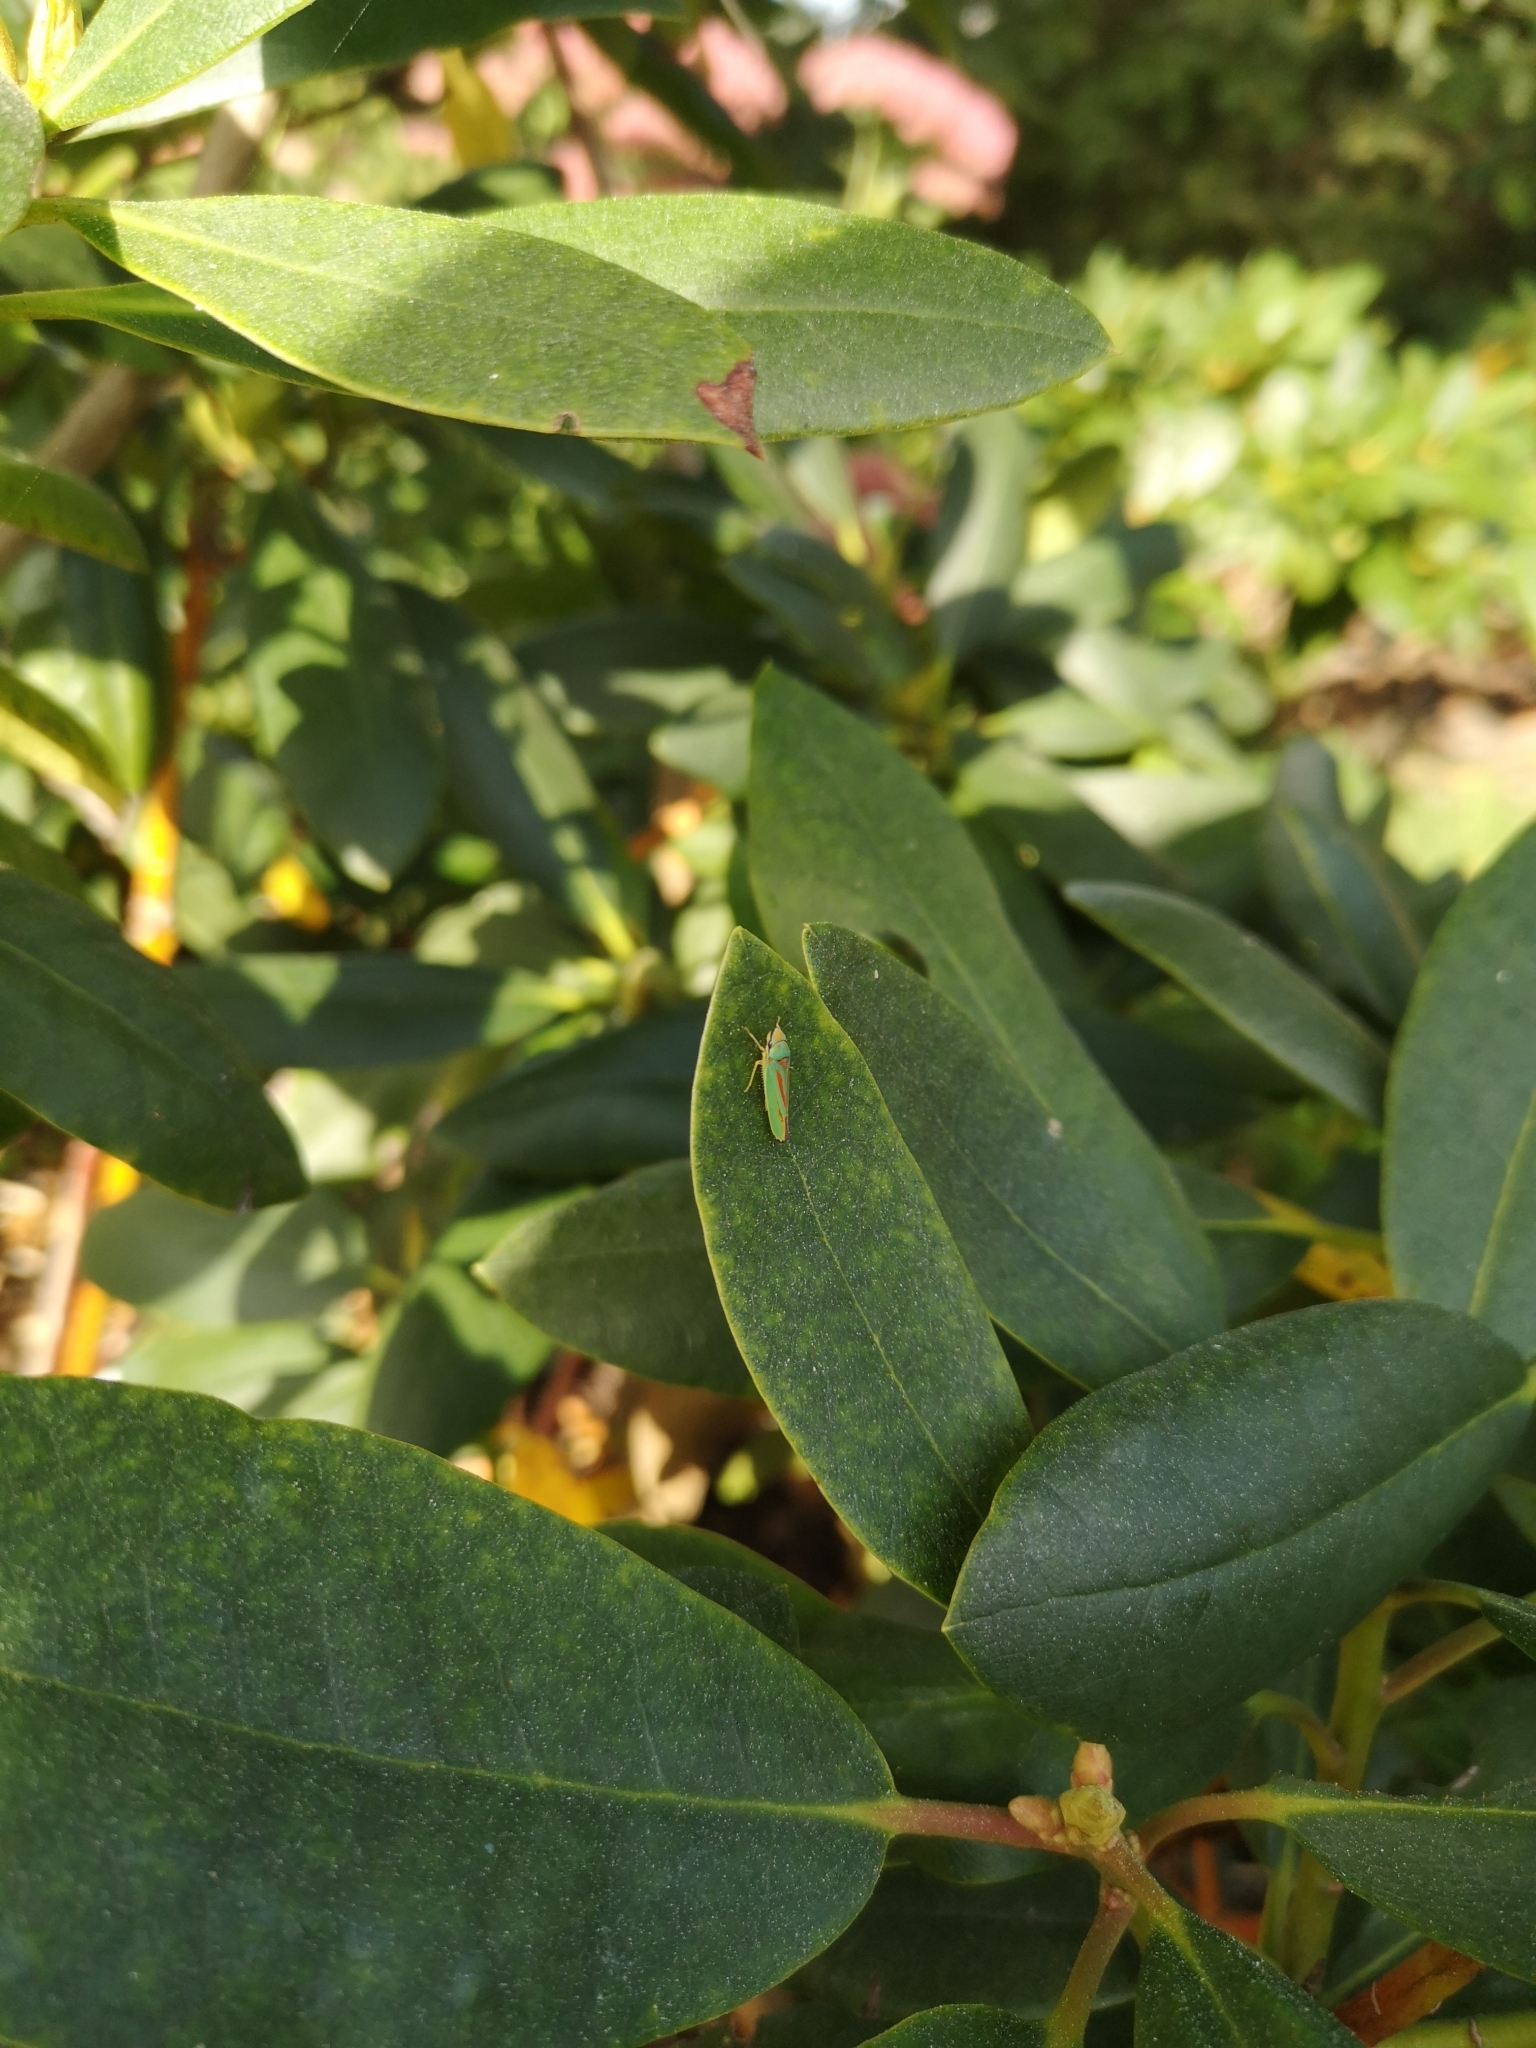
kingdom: Animalia
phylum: Arthropoda
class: Insecta
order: Hemiptera
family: Cicadellidae
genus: Graphocephala
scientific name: Graphocephala fennahi
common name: Rhododendron leafhopper
